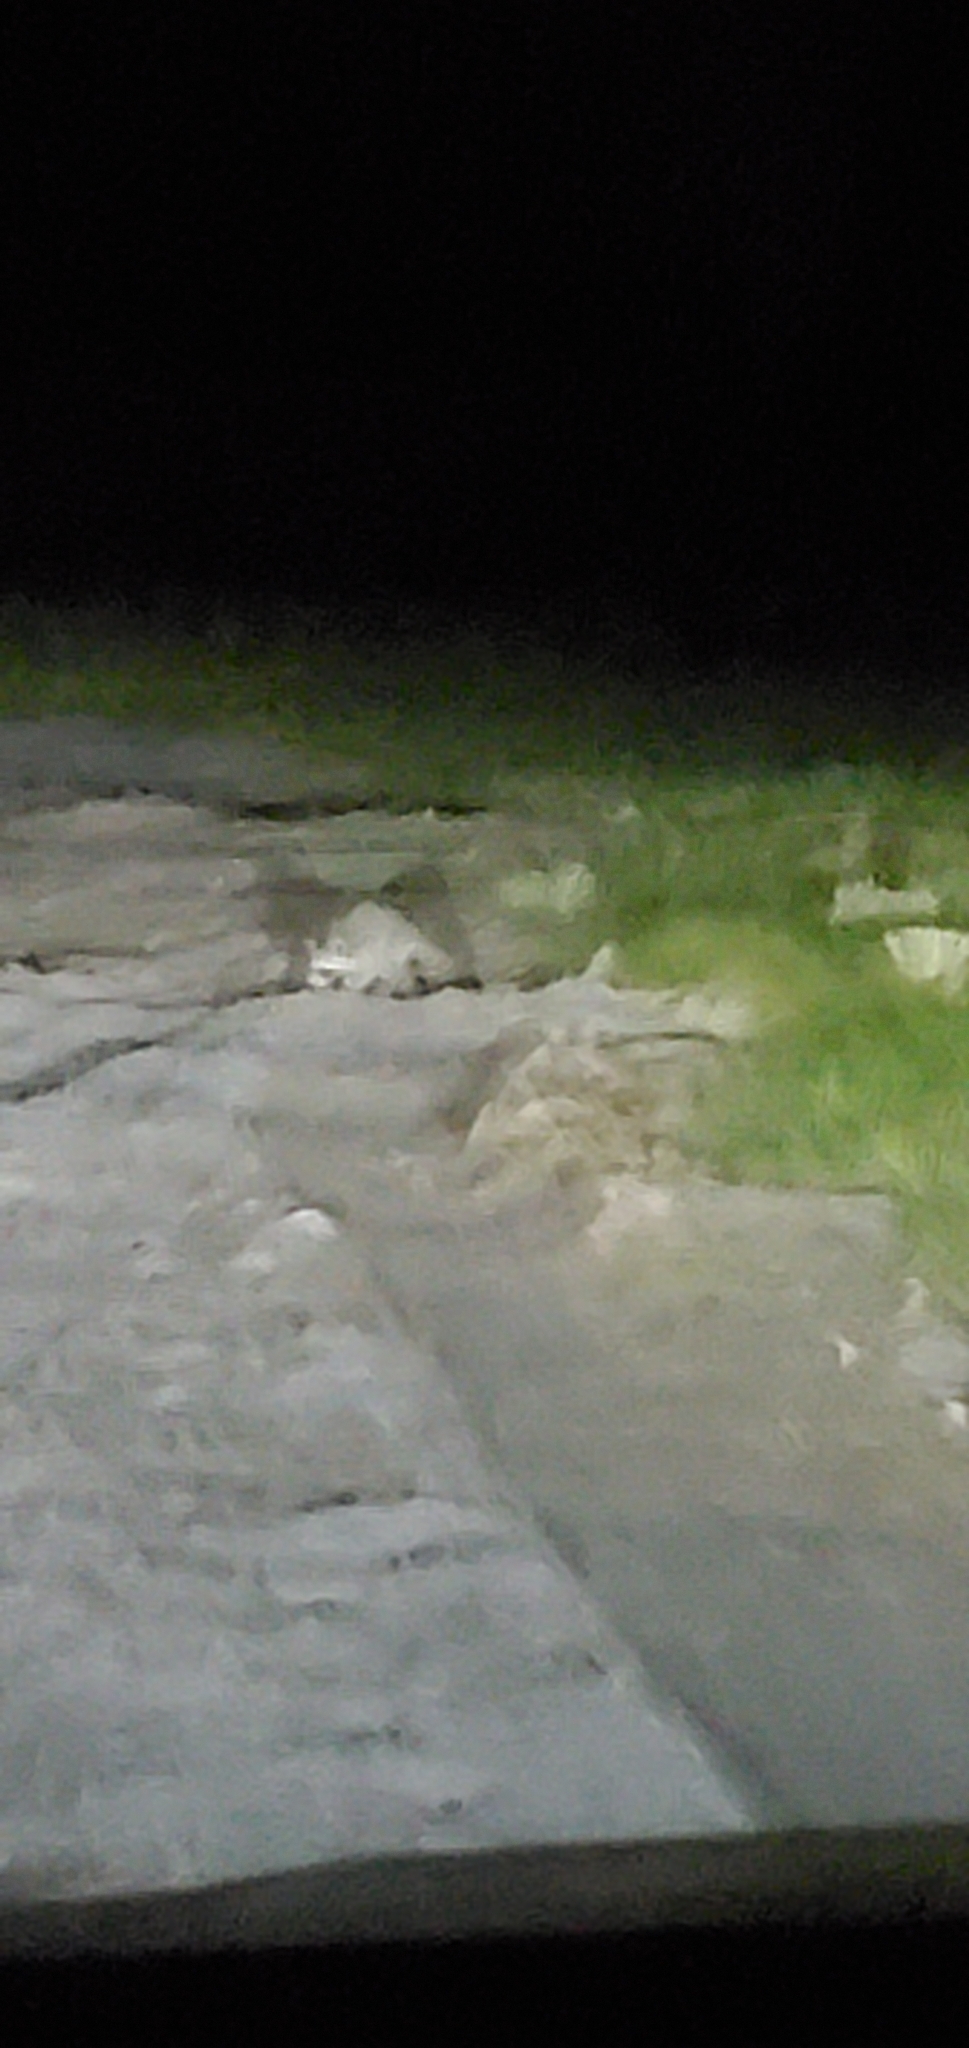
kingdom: Animalia
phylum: Chordata
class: Mammalia
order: Carnivora
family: Procyonidae
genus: Procyon
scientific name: Procyon lotor
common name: Raccoon
